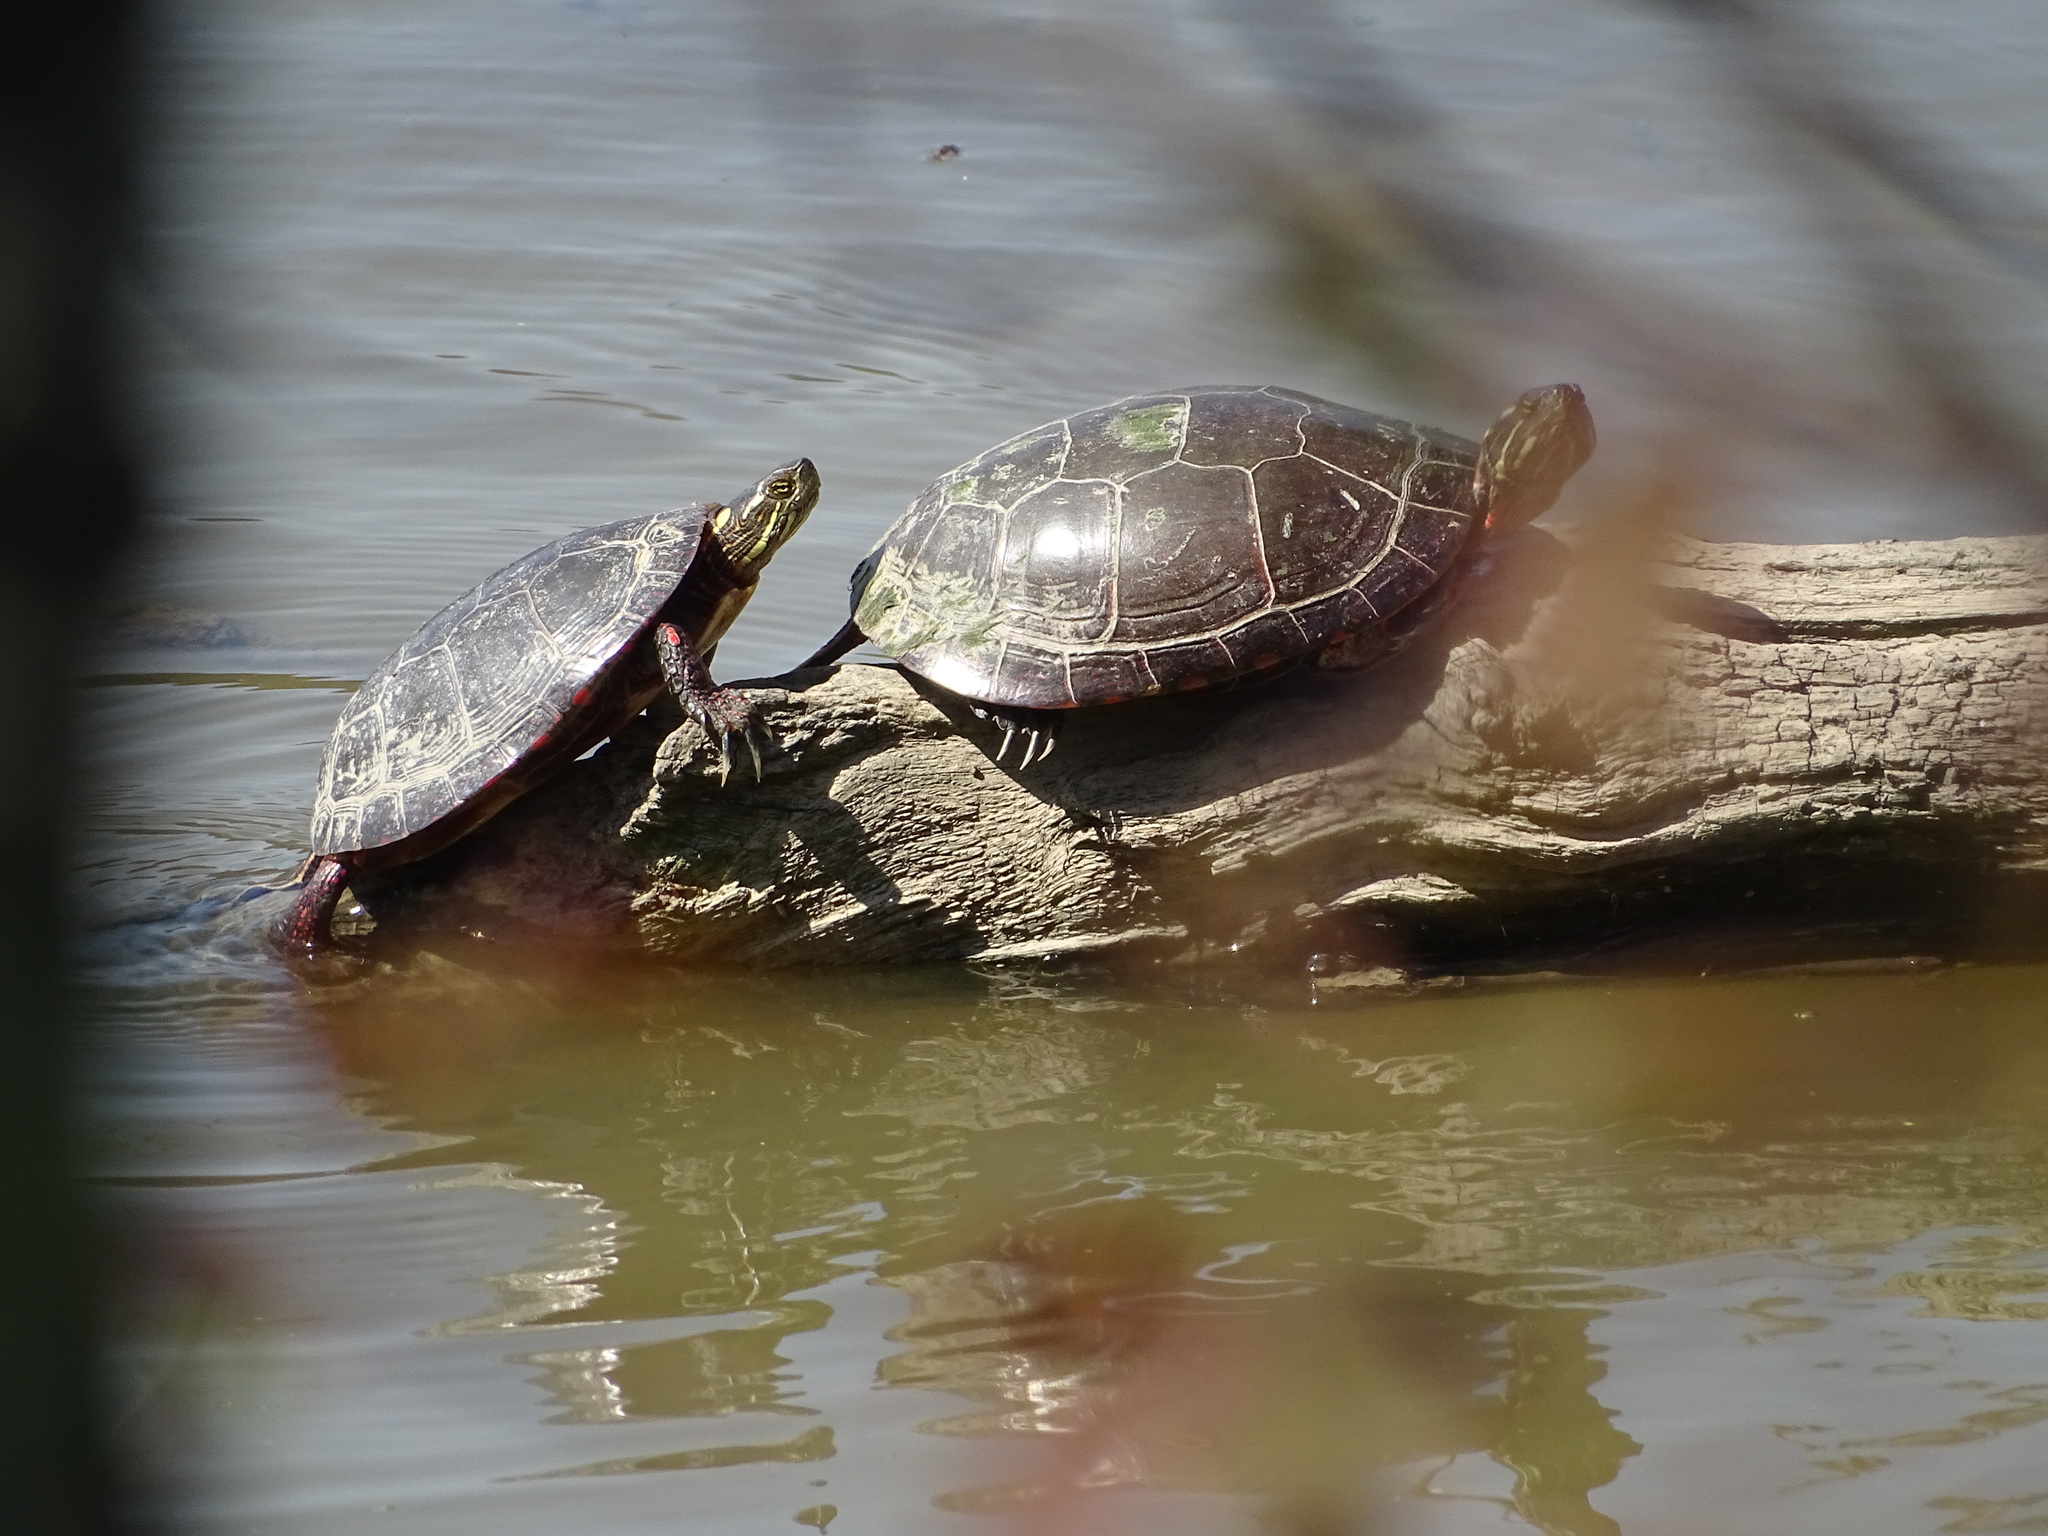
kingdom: Animalia
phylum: Chordata
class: Testudines
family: Emydidae
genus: Chrysemys
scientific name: Chrysemys picta
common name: Painted turtle
